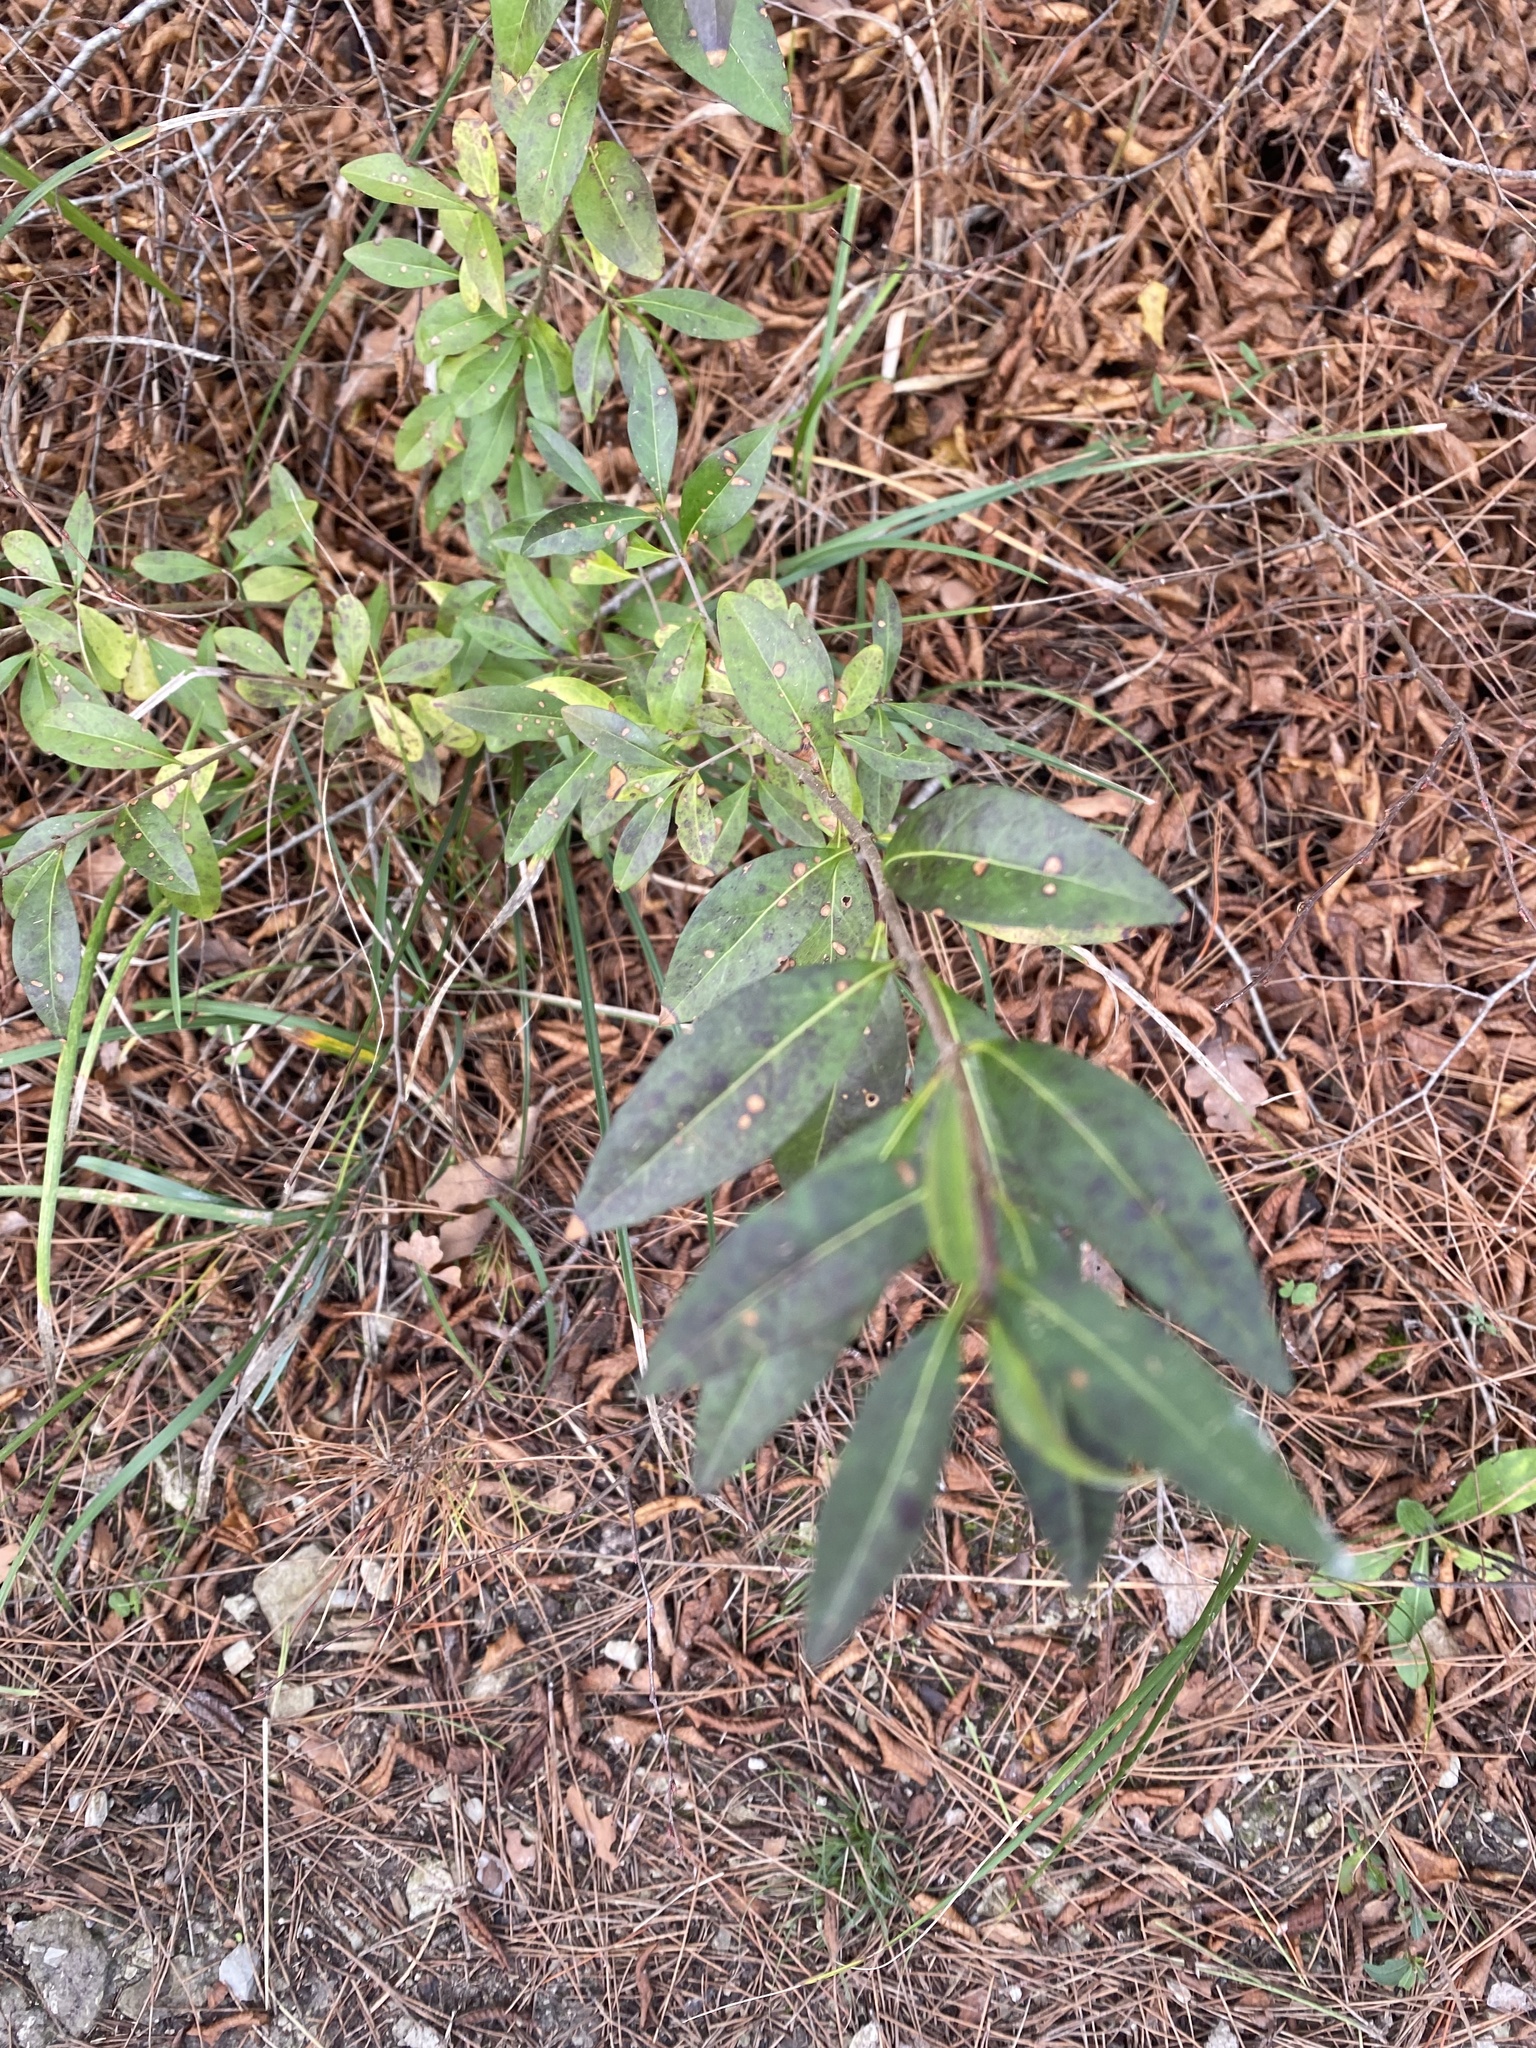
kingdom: Plantae
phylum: Tracheophyta
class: Magnoliopsida
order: Lamiales
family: Oleaceae
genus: Ligustrum
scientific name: Ligustrum vulgare
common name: Wild privet
